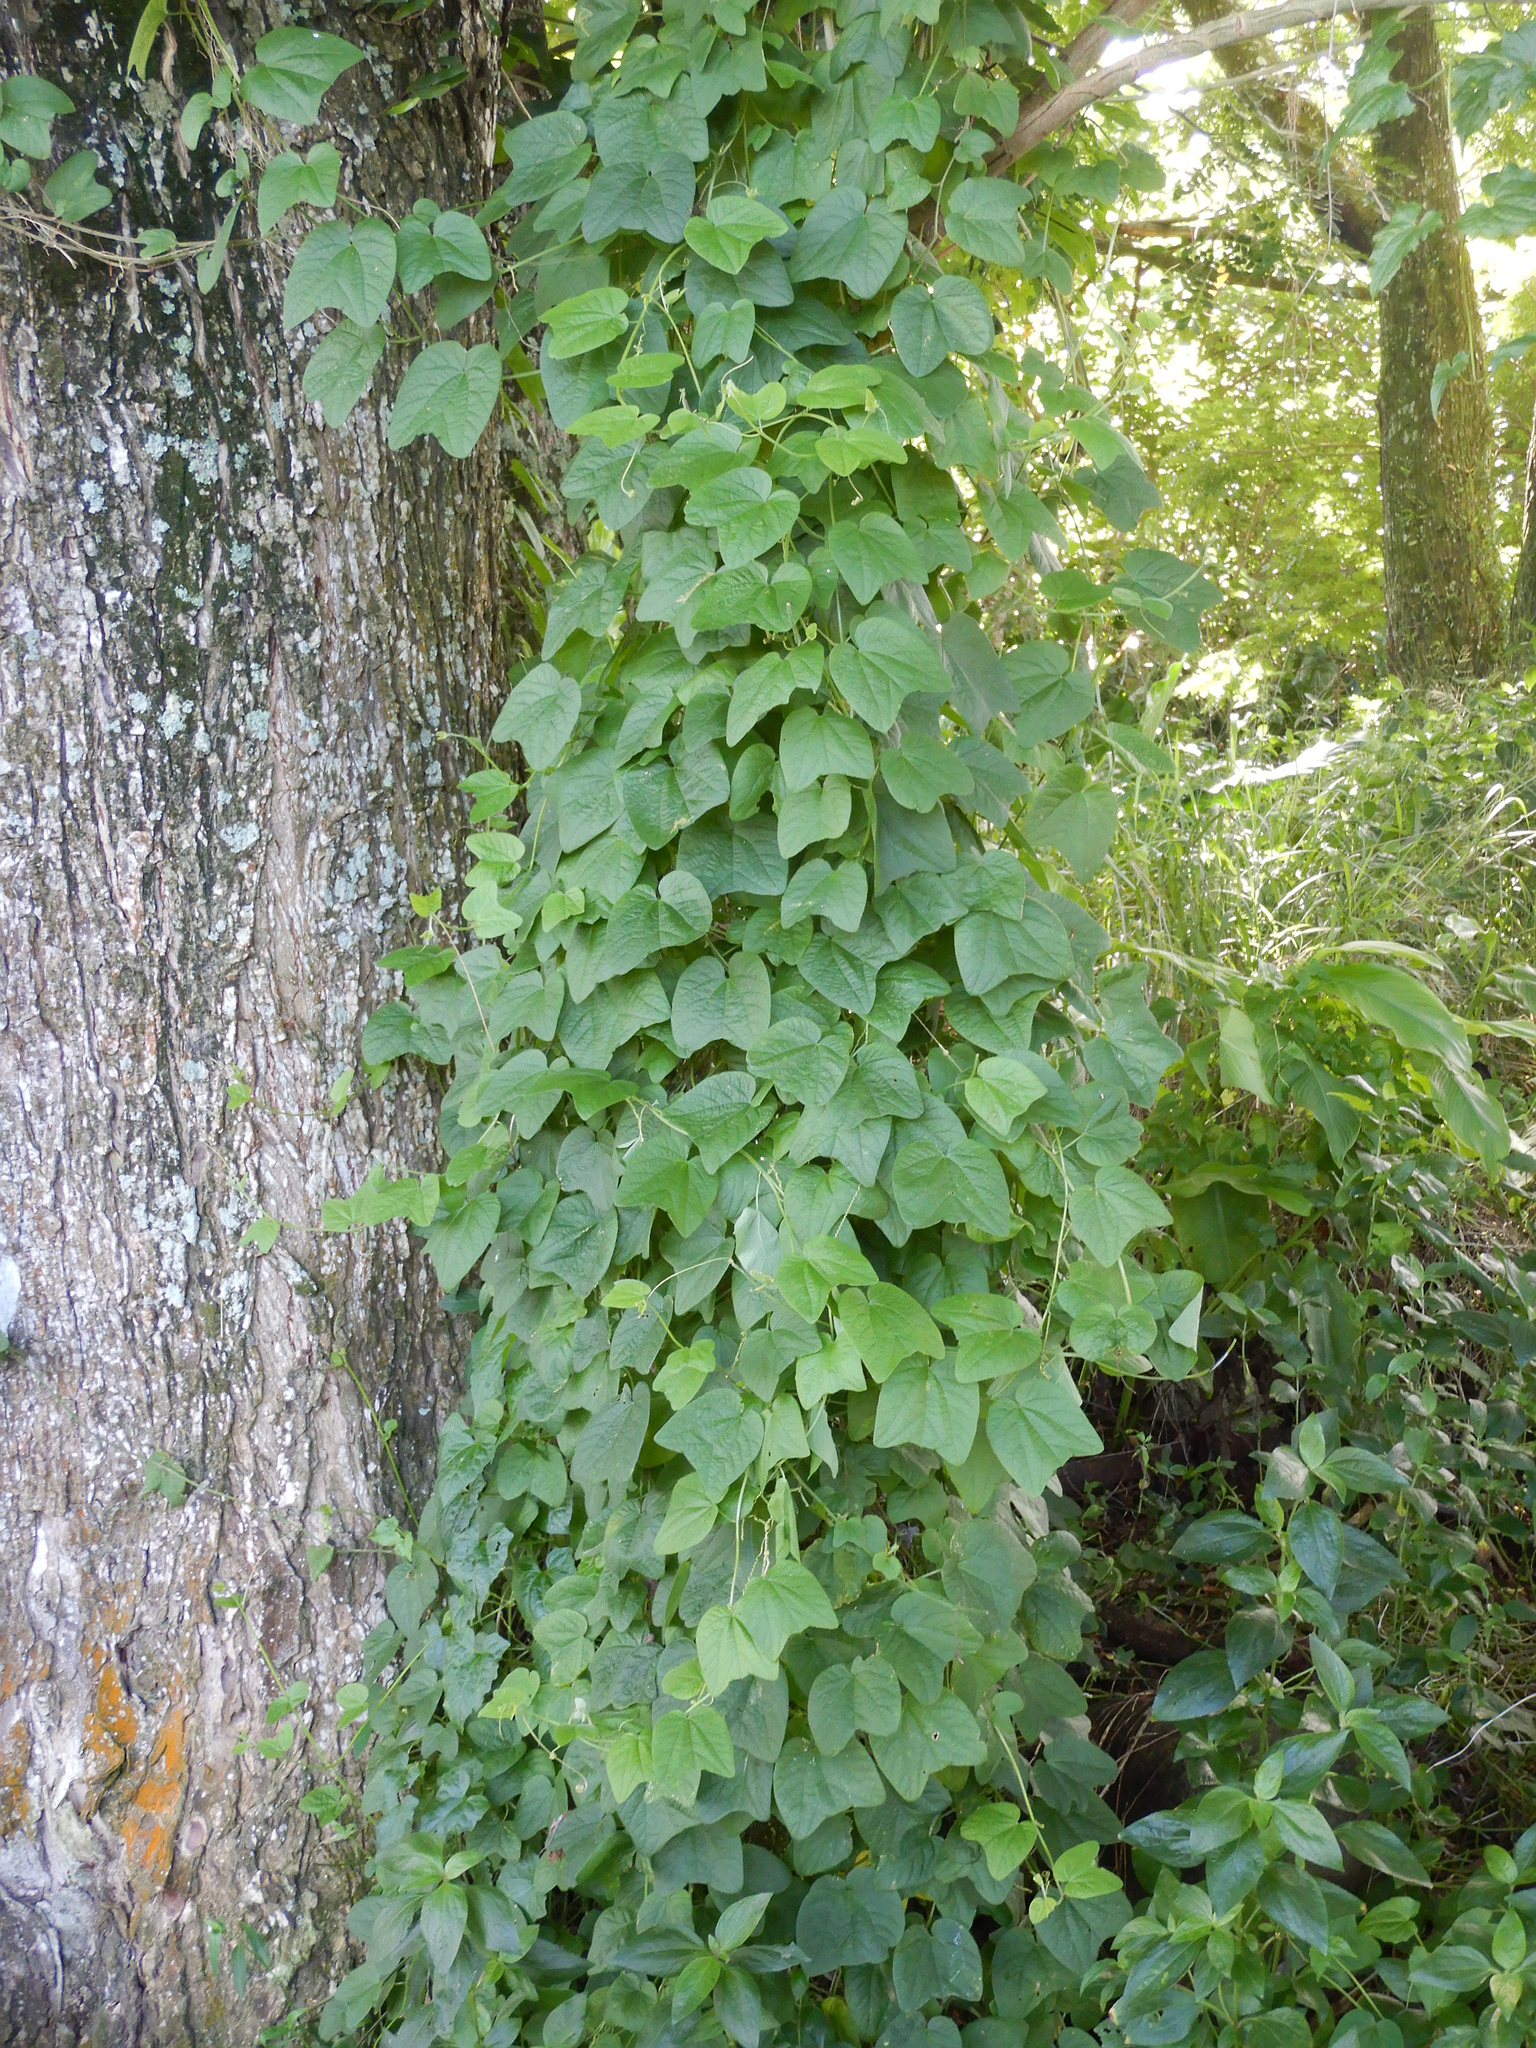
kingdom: Plantae
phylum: Tracheophyta
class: Magnoliopsida
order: Malpighiales
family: Passifloraceae
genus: Passiflora
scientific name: Passiflora rubra
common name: Snakeberry vine
